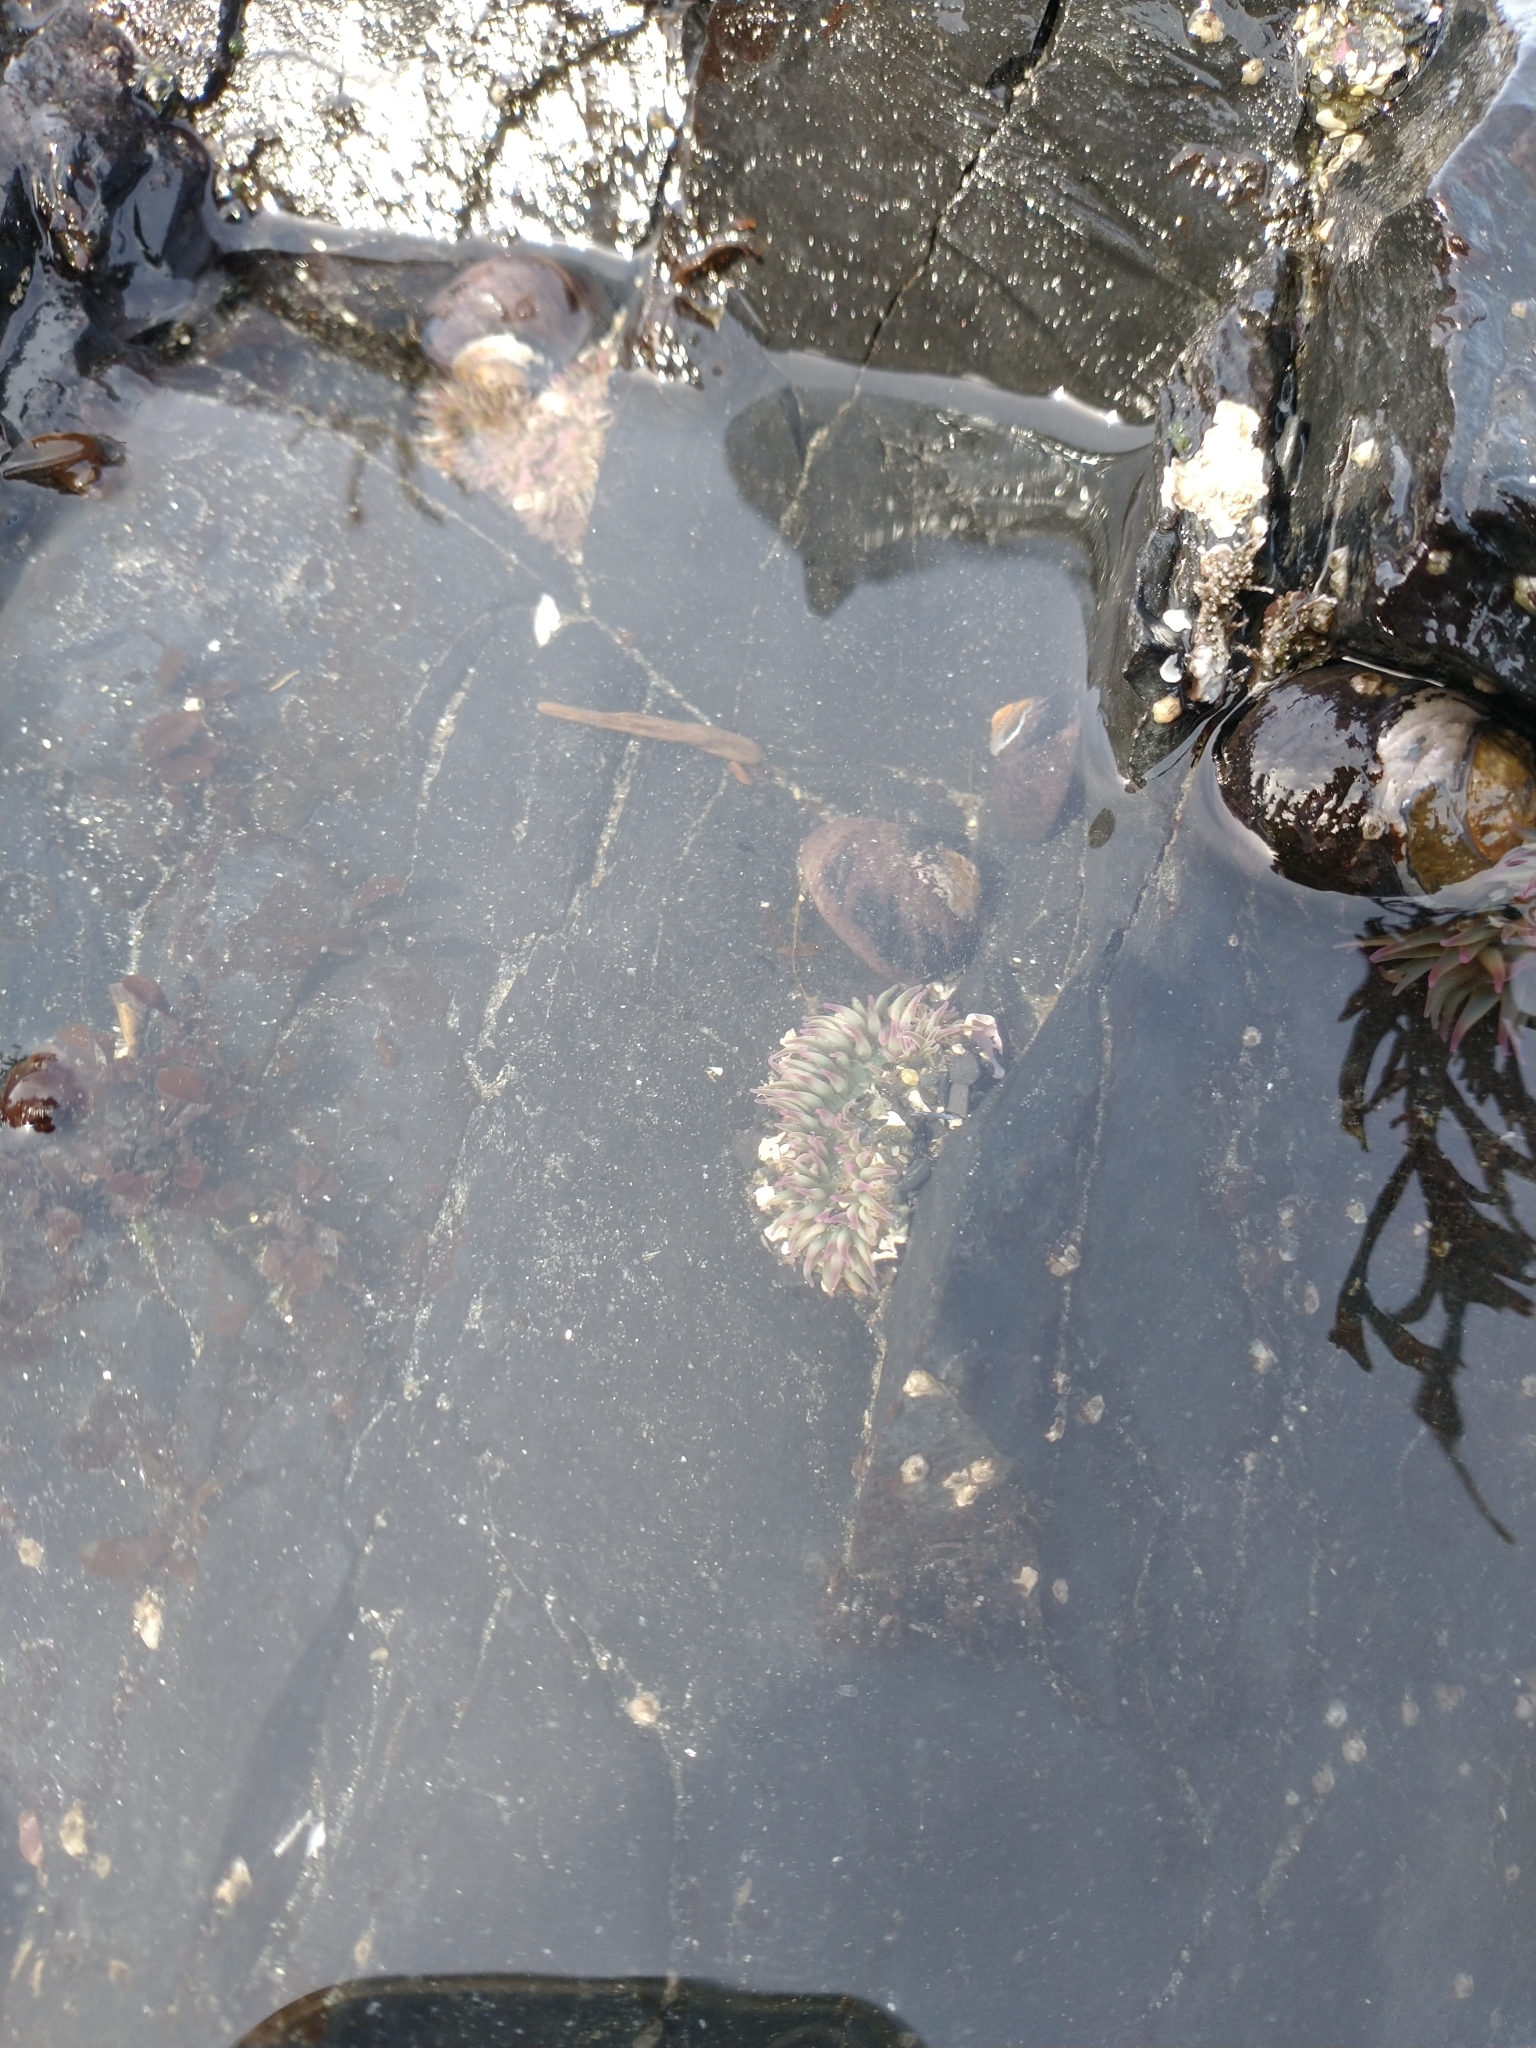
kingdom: Animalia
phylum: Cnidaria
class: Anthozoa
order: Actiniaria
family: Actiniidae
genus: Anthopleura
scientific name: Anthopleura elegantissima
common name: Clonal anemone
